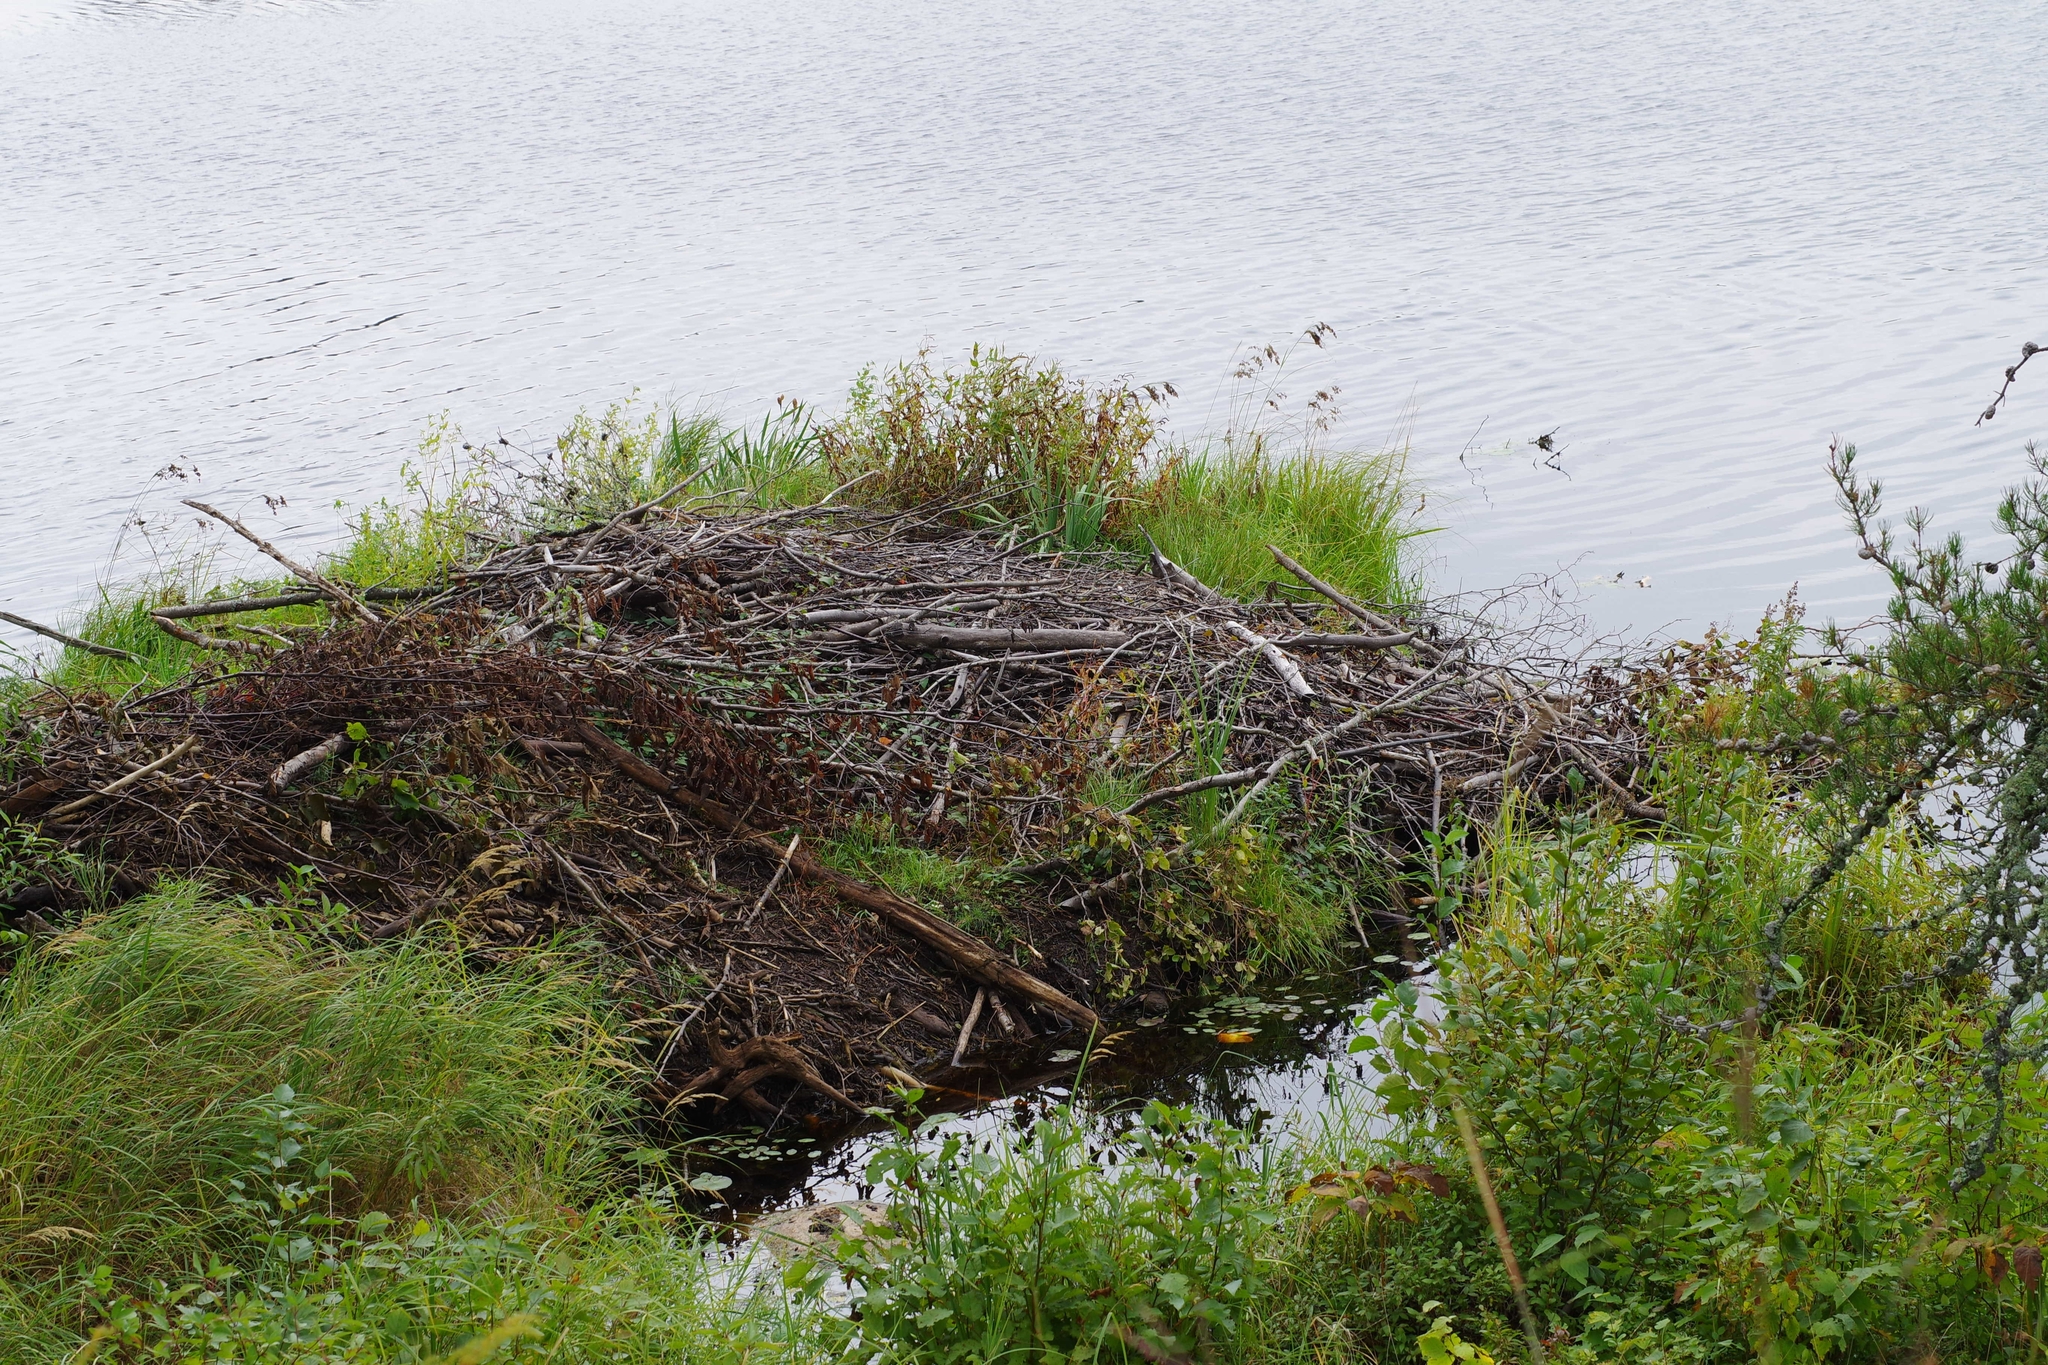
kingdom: Animalia
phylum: Chordata
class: Mammalia
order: Rodentia
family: Castoridae
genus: Castor
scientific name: Castor canadensis
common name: American beaver
